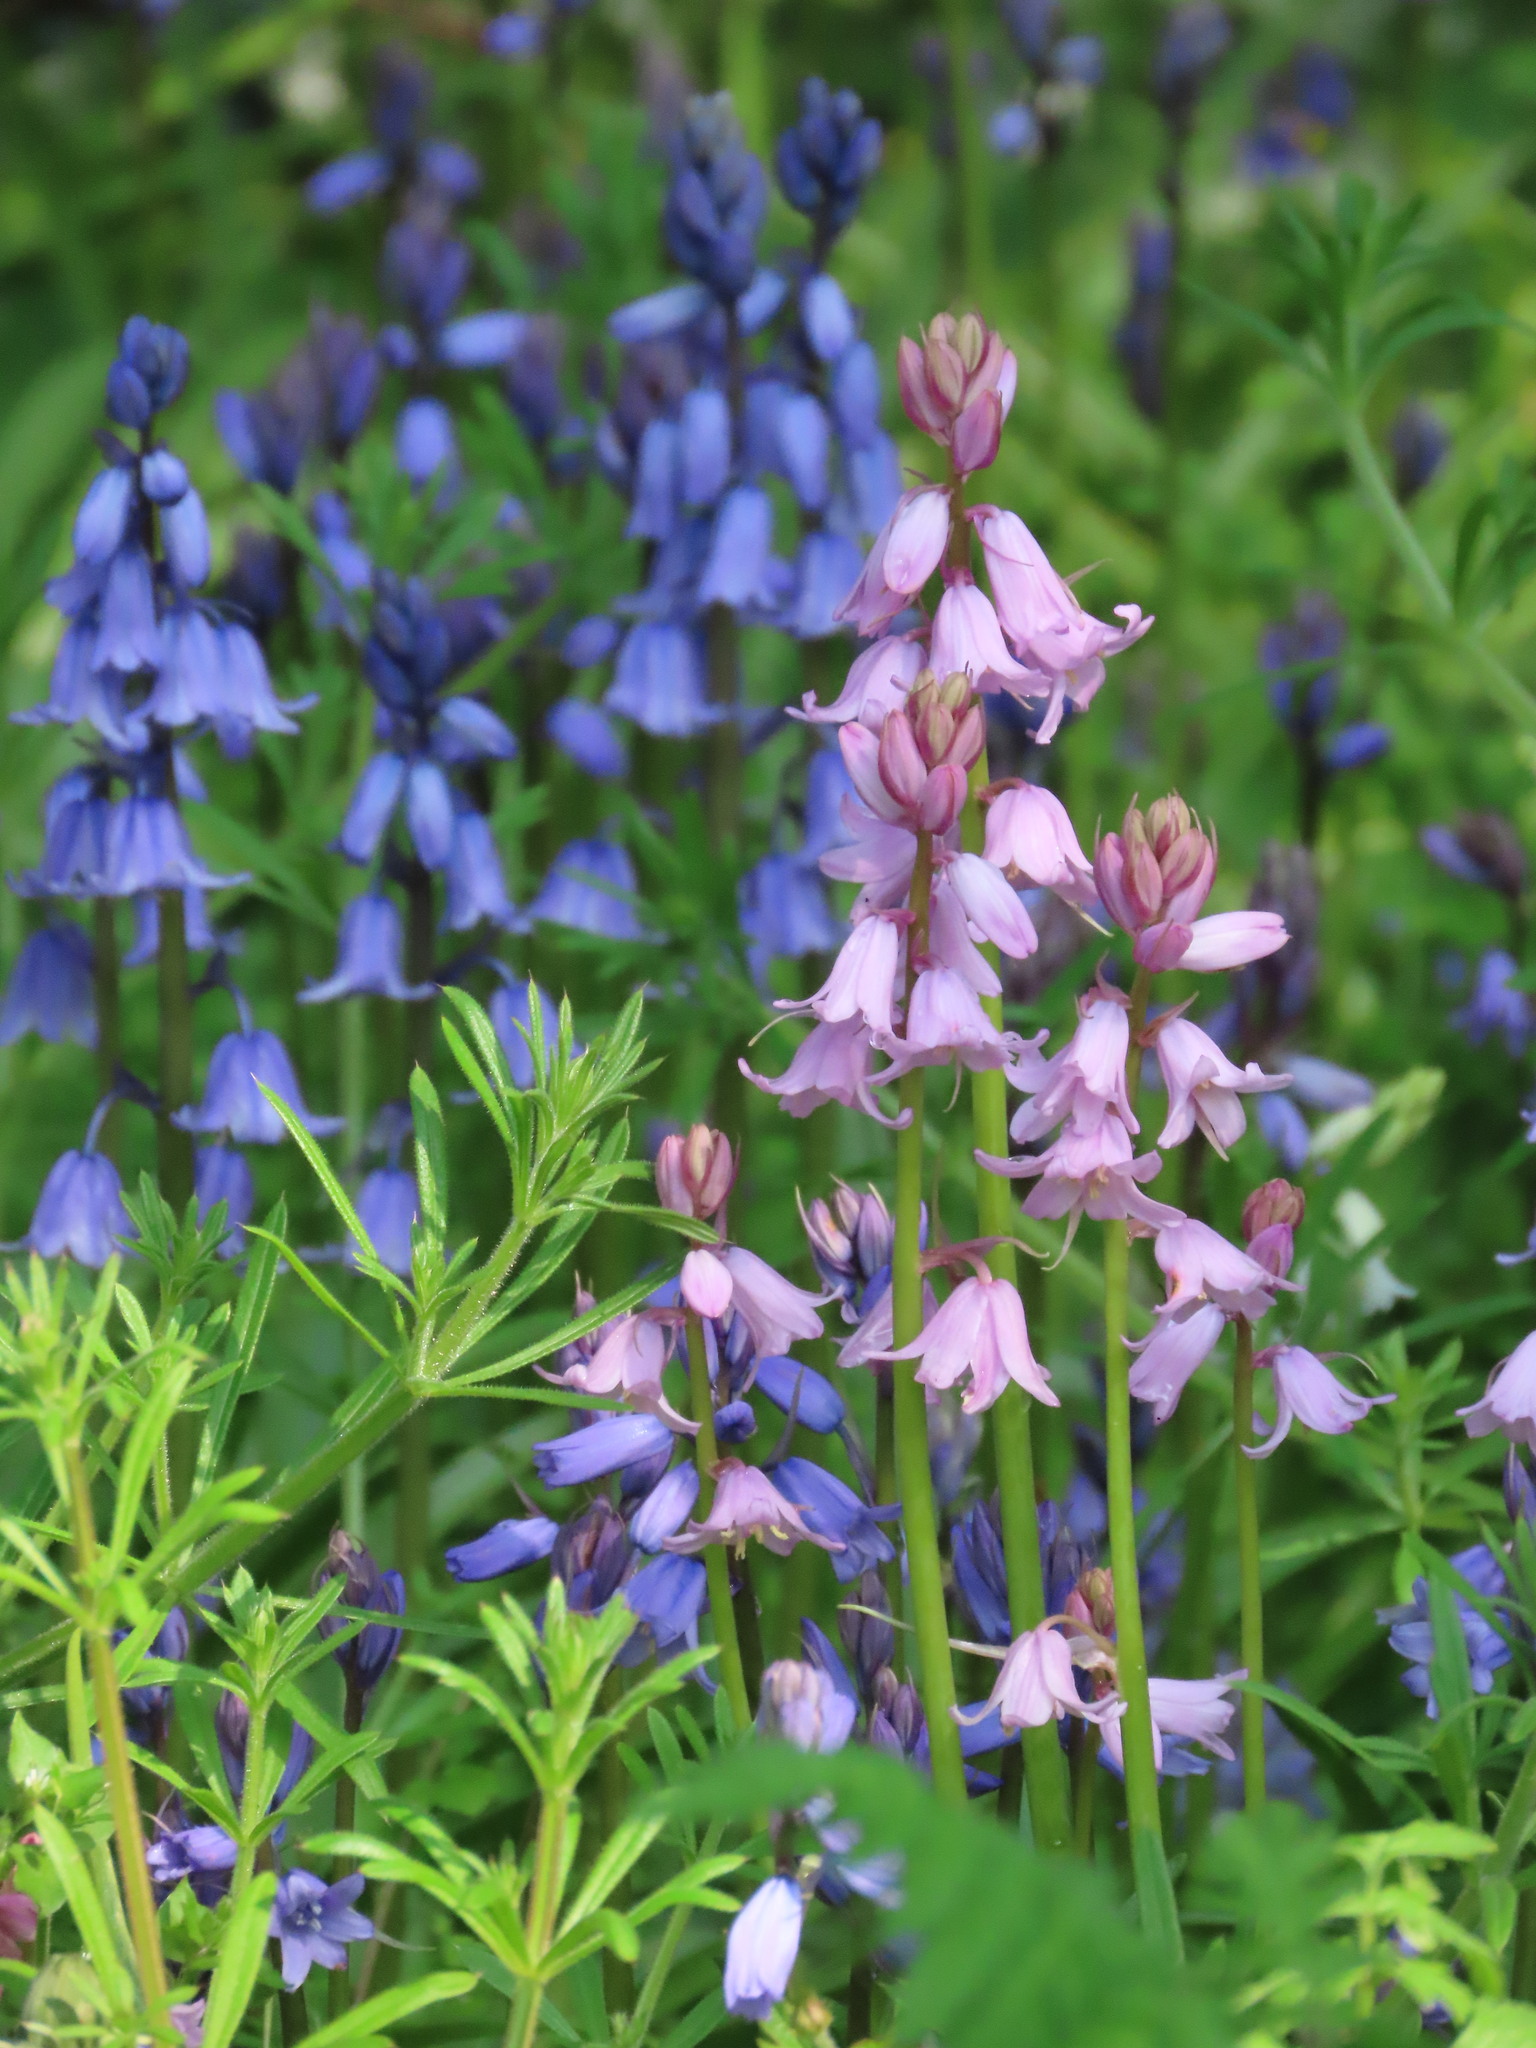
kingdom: Plantae
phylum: Tracheophyta
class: Liliopsida
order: Asparagales
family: Asparagaceae
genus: Hyacinthoides
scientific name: Hyacinthoides massartiana
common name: Hyacinthoides
